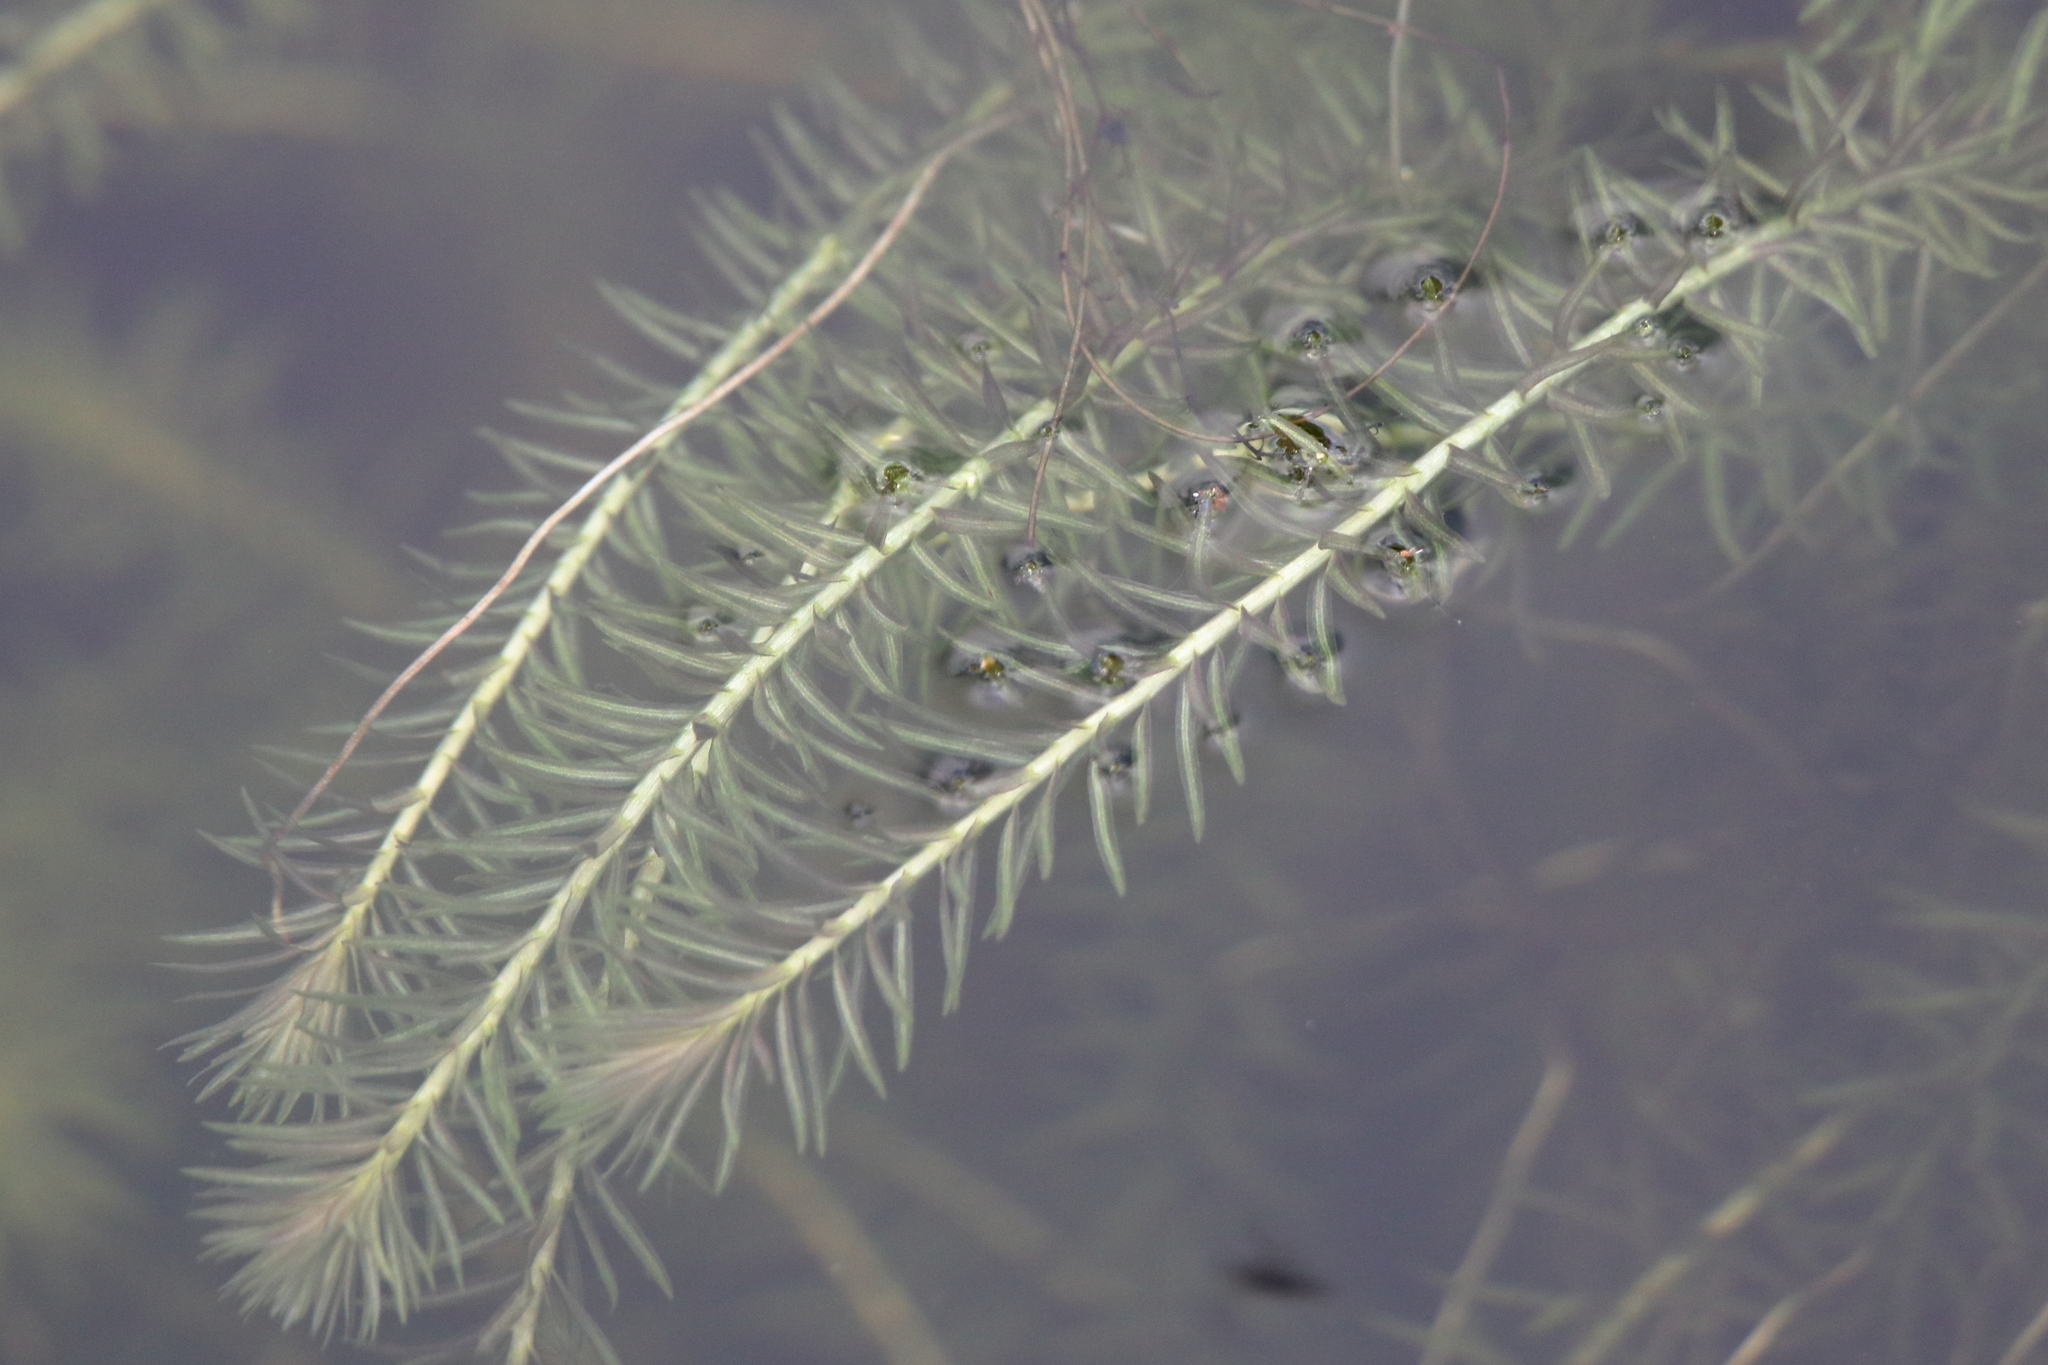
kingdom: Plantae
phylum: Tracheophyta
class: Liliopsida
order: Poales
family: Mayacaceae
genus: Mayaca
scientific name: Mayaca fluviatilis
